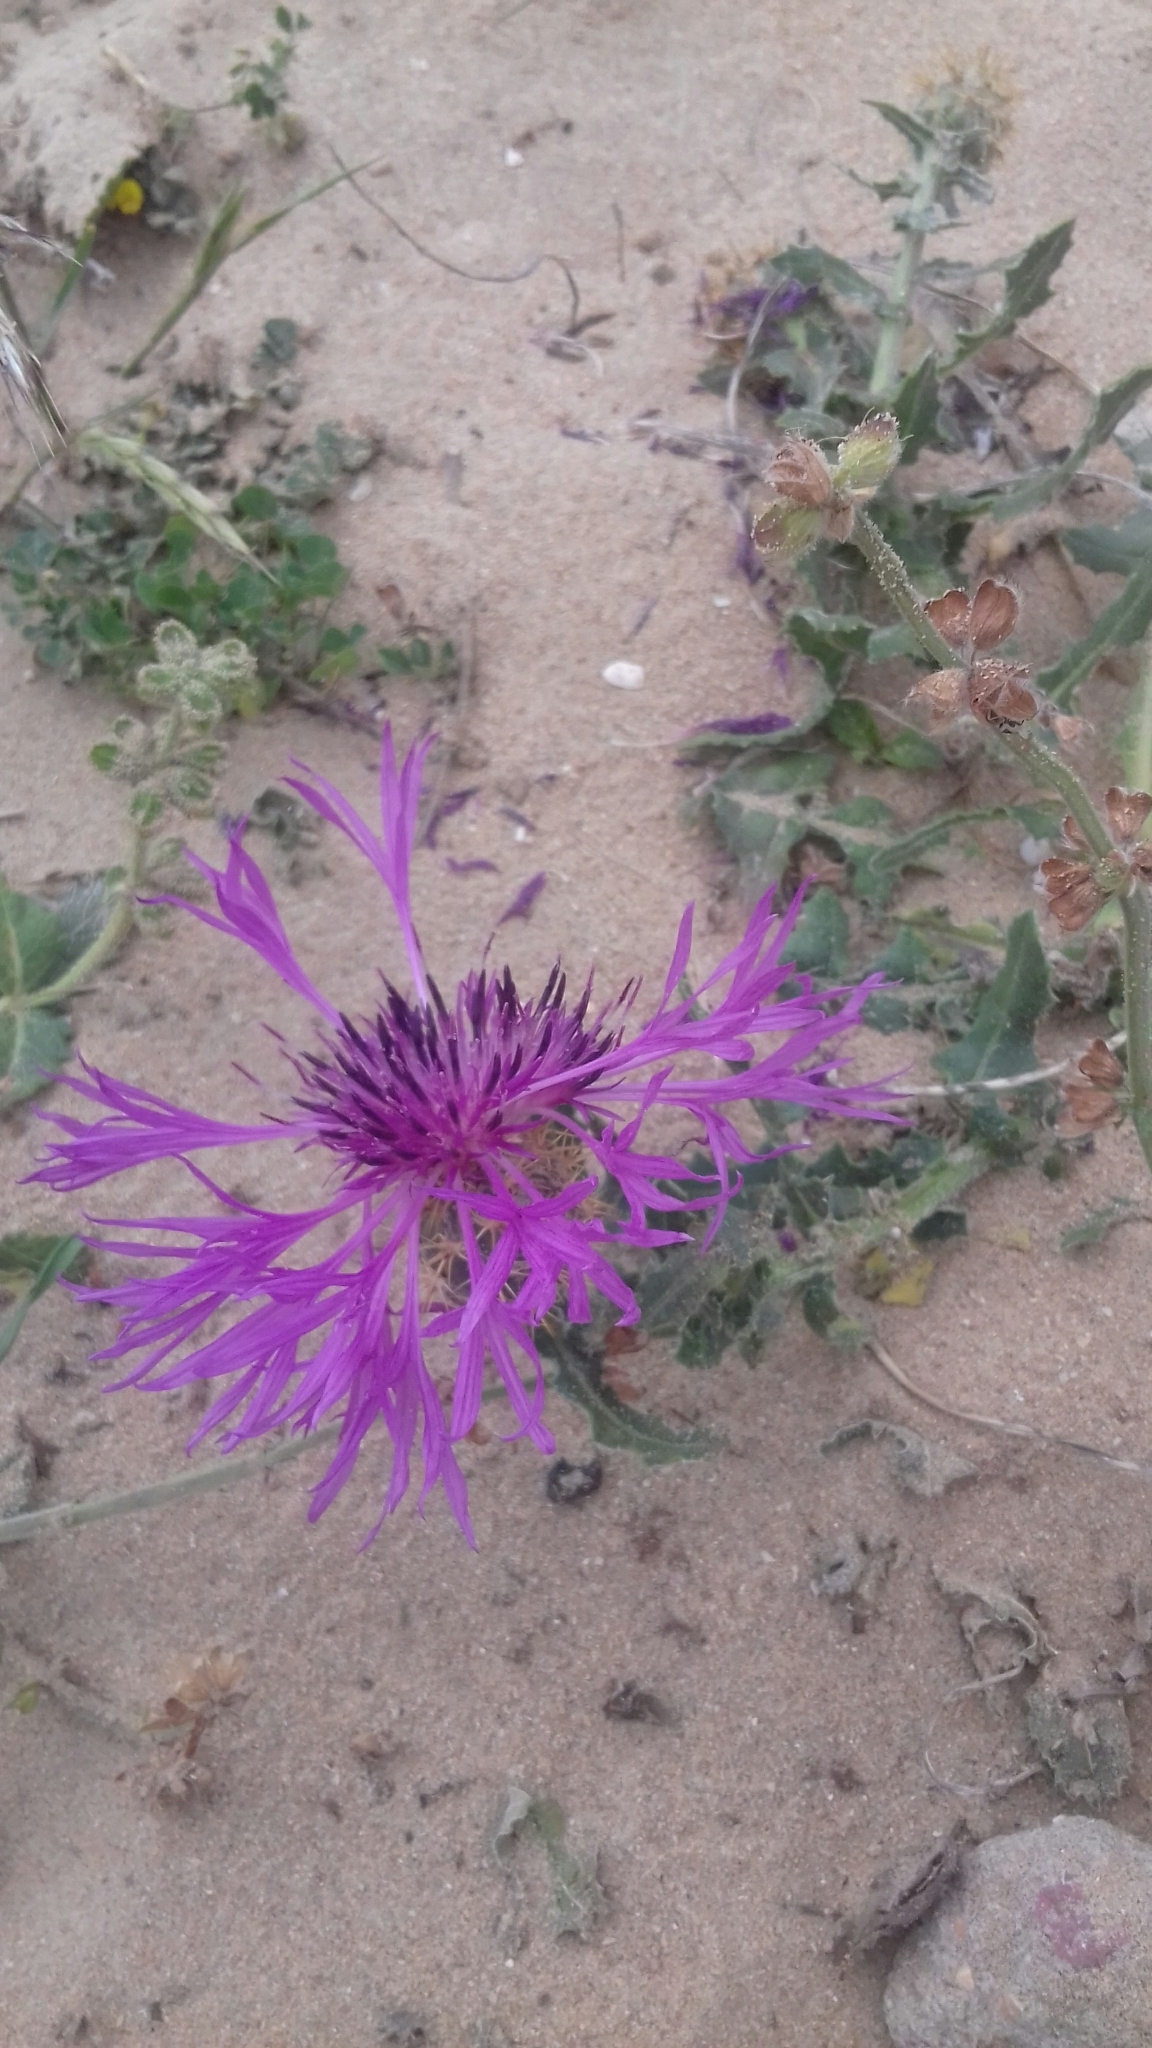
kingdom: Plantae
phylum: Tracheophyta
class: Magnoliopsida
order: Asterales
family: Asteraceae
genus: Centaurea
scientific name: Centaurea polyacantha
